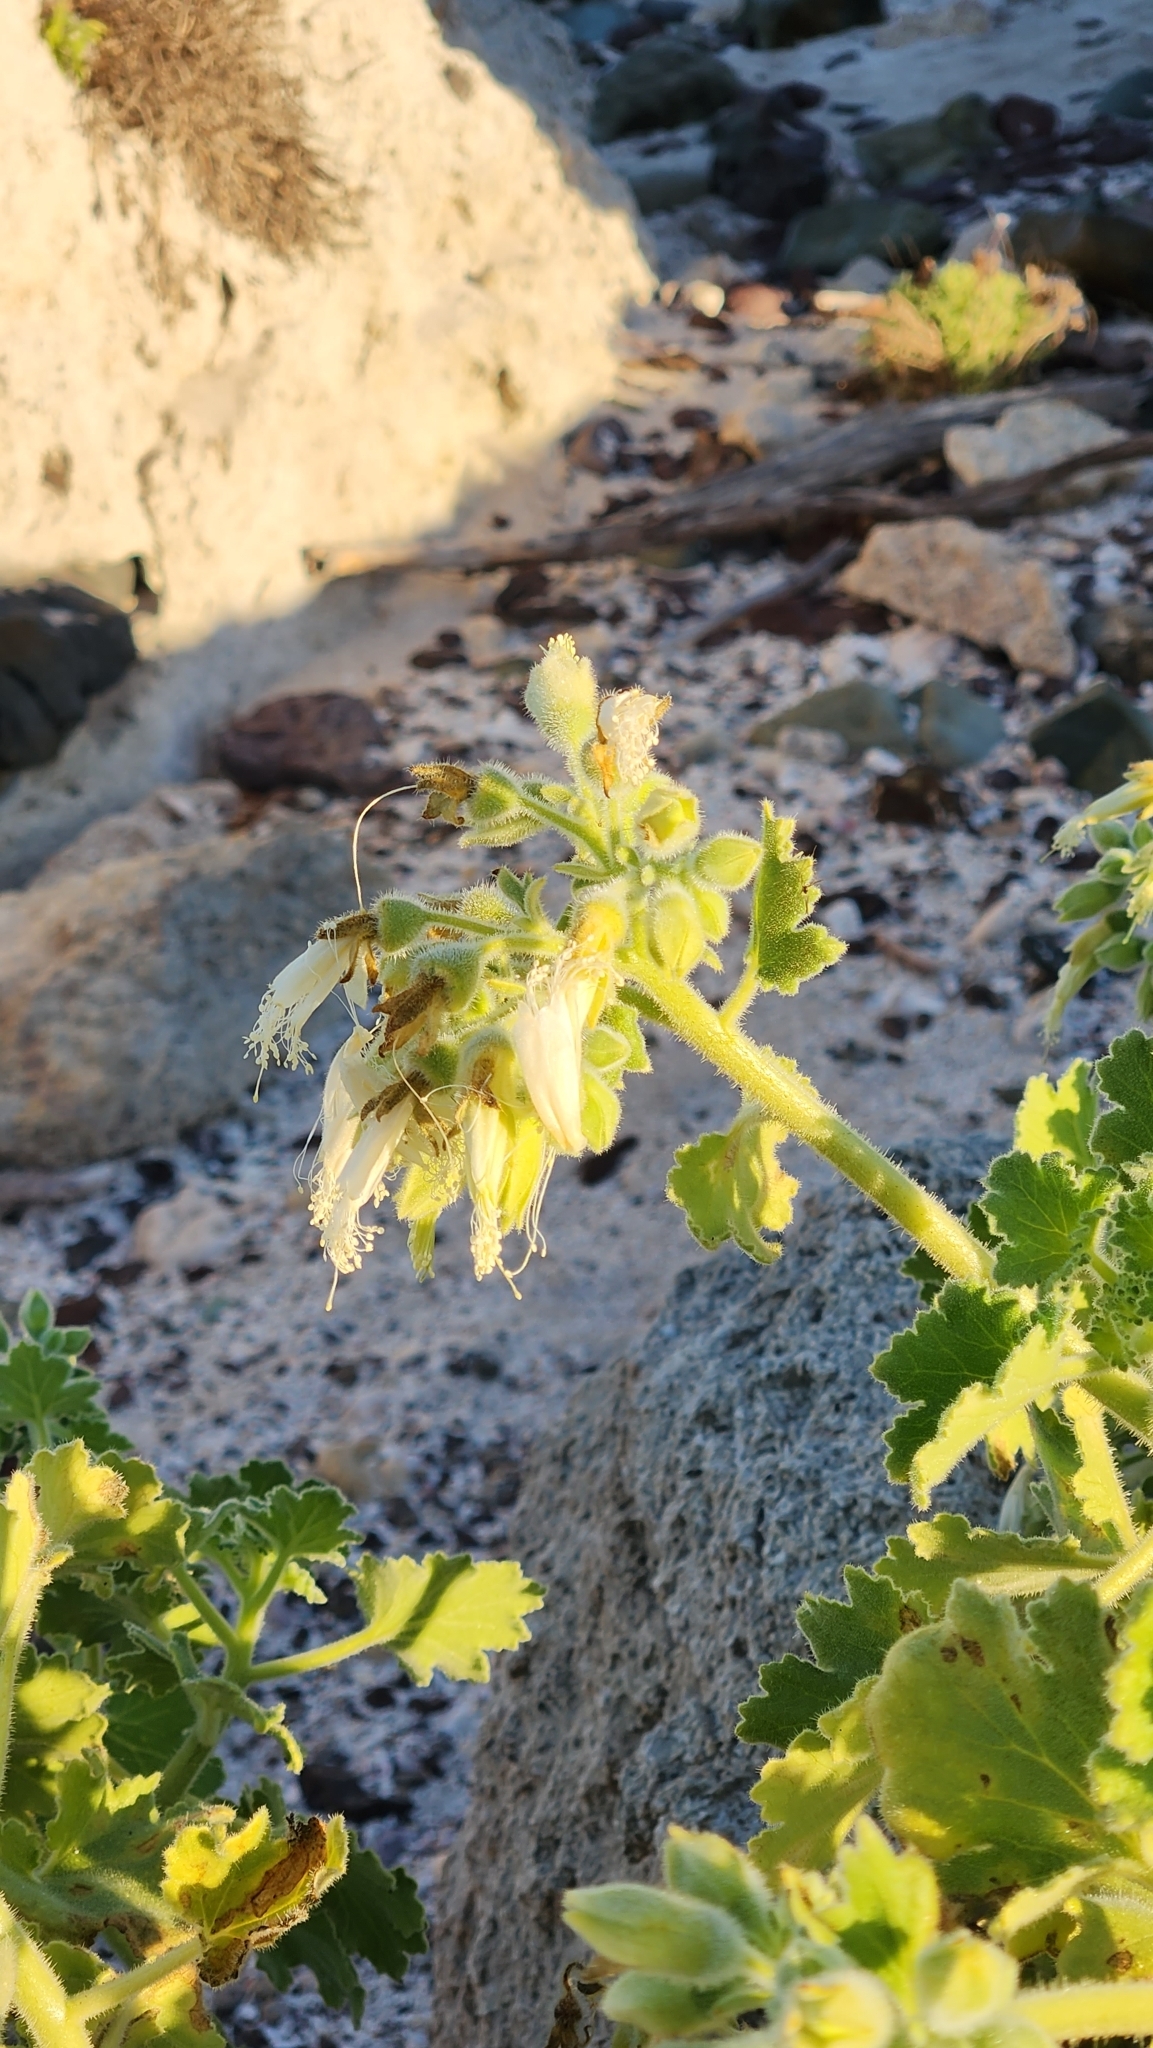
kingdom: Plantae
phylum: Tracheophyta
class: Magnoliopsida
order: Cornales
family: Loasaceae
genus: Eucnide
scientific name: Eucnide cordata
